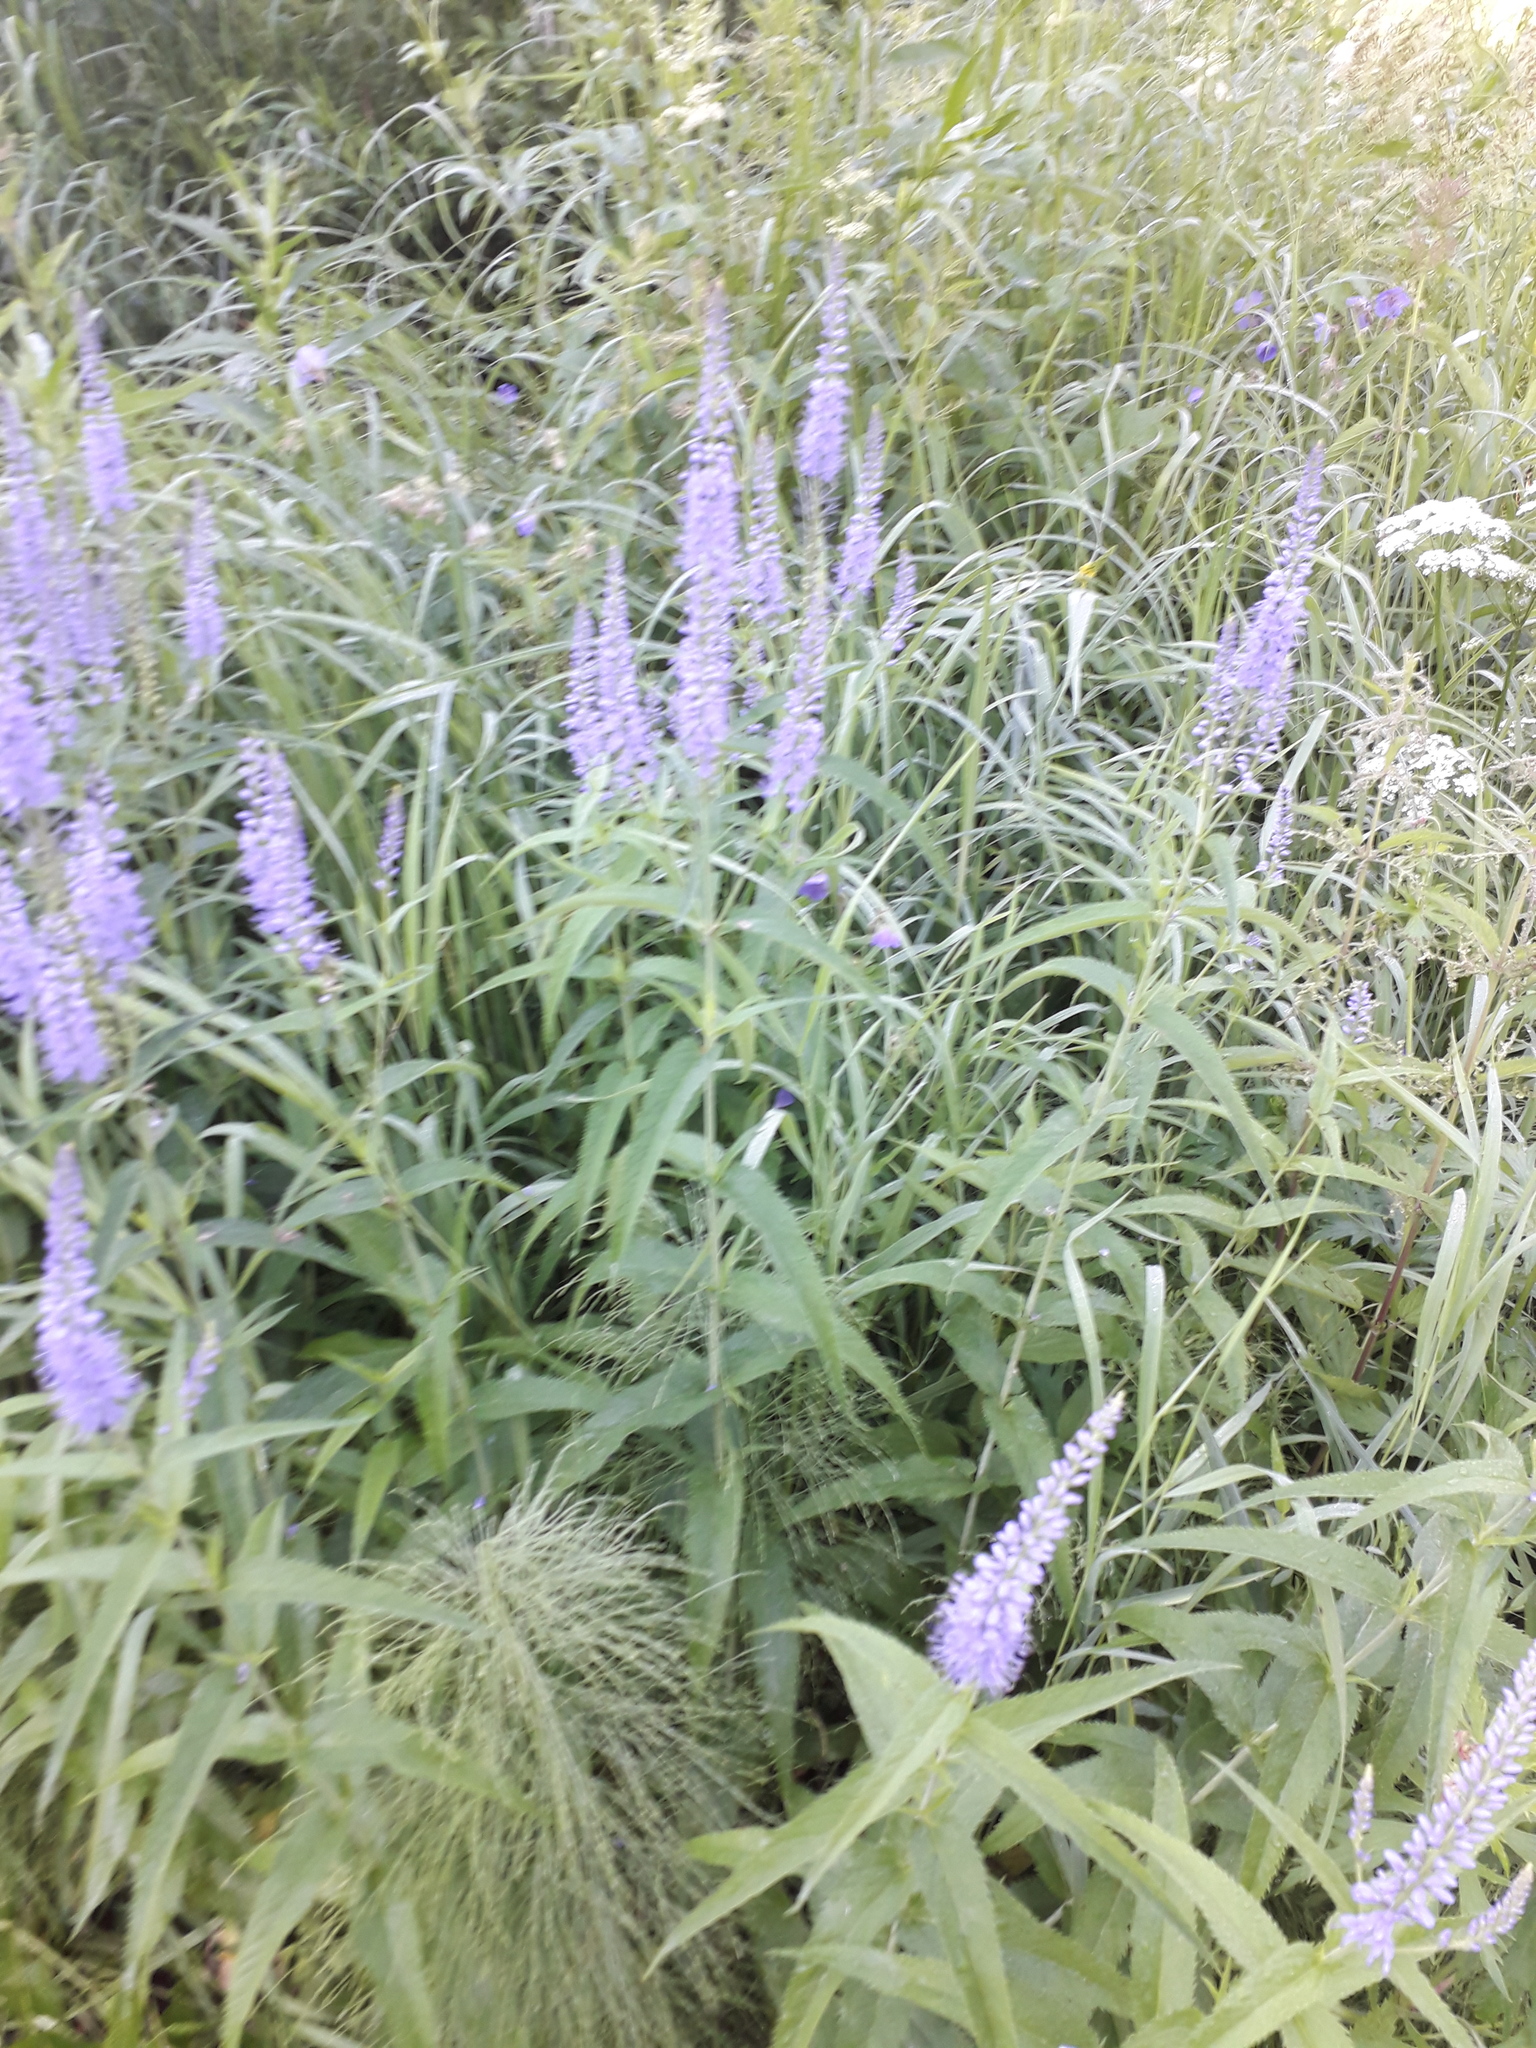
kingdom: Plantae
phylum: Tracheophyta
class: Magnoliopsida
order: Lamiales
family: Plantaginaceae
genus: Veronica
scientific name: Veronica longifolia
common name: Garden speedwell
